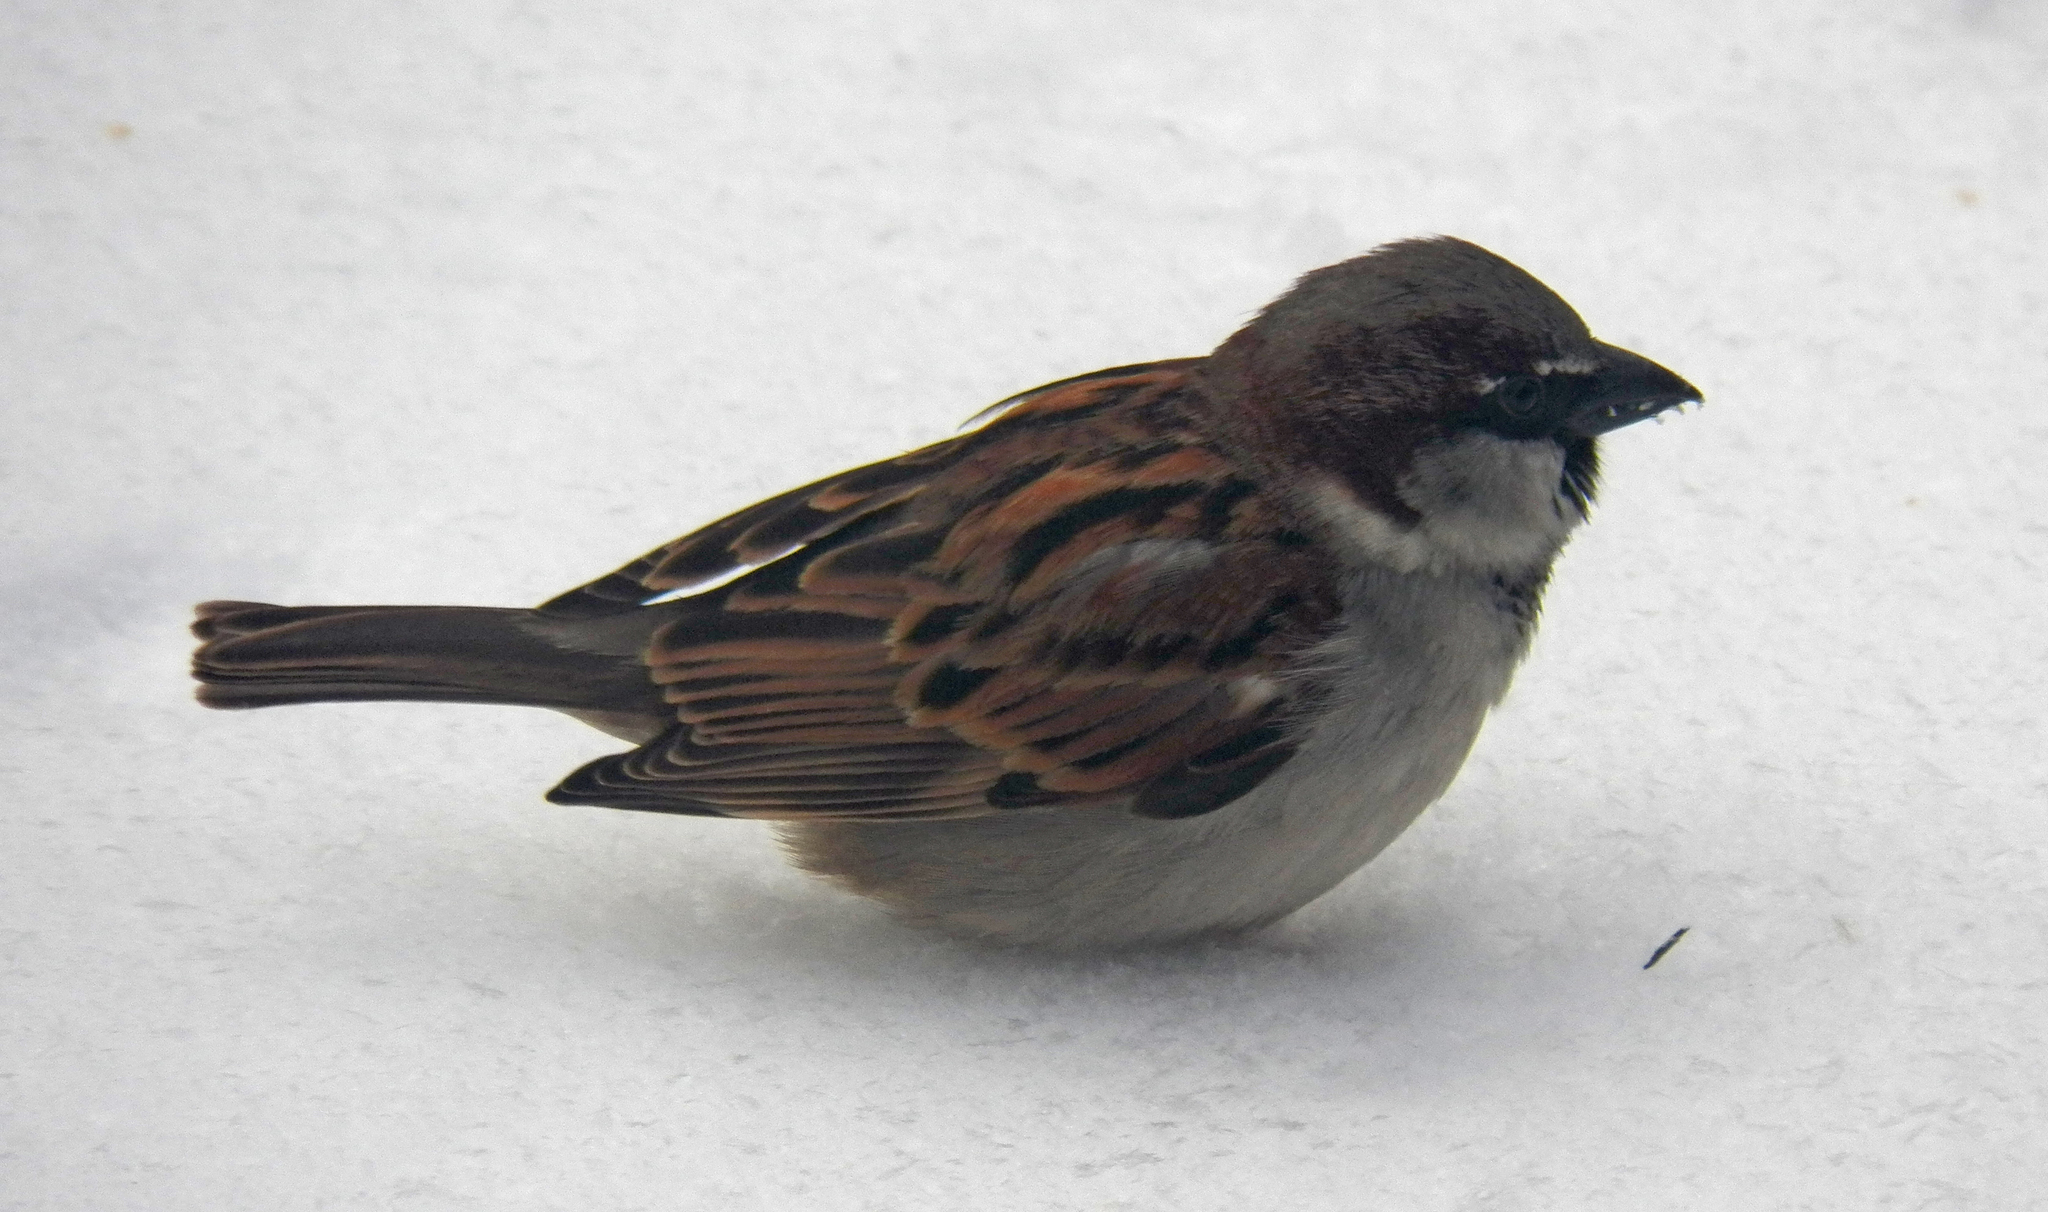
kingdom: Animalia
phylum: Chordata
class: Aves
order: Passeriformes
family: Passeridae
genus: Passer
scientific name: Passer domesticus
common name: House sparrow
